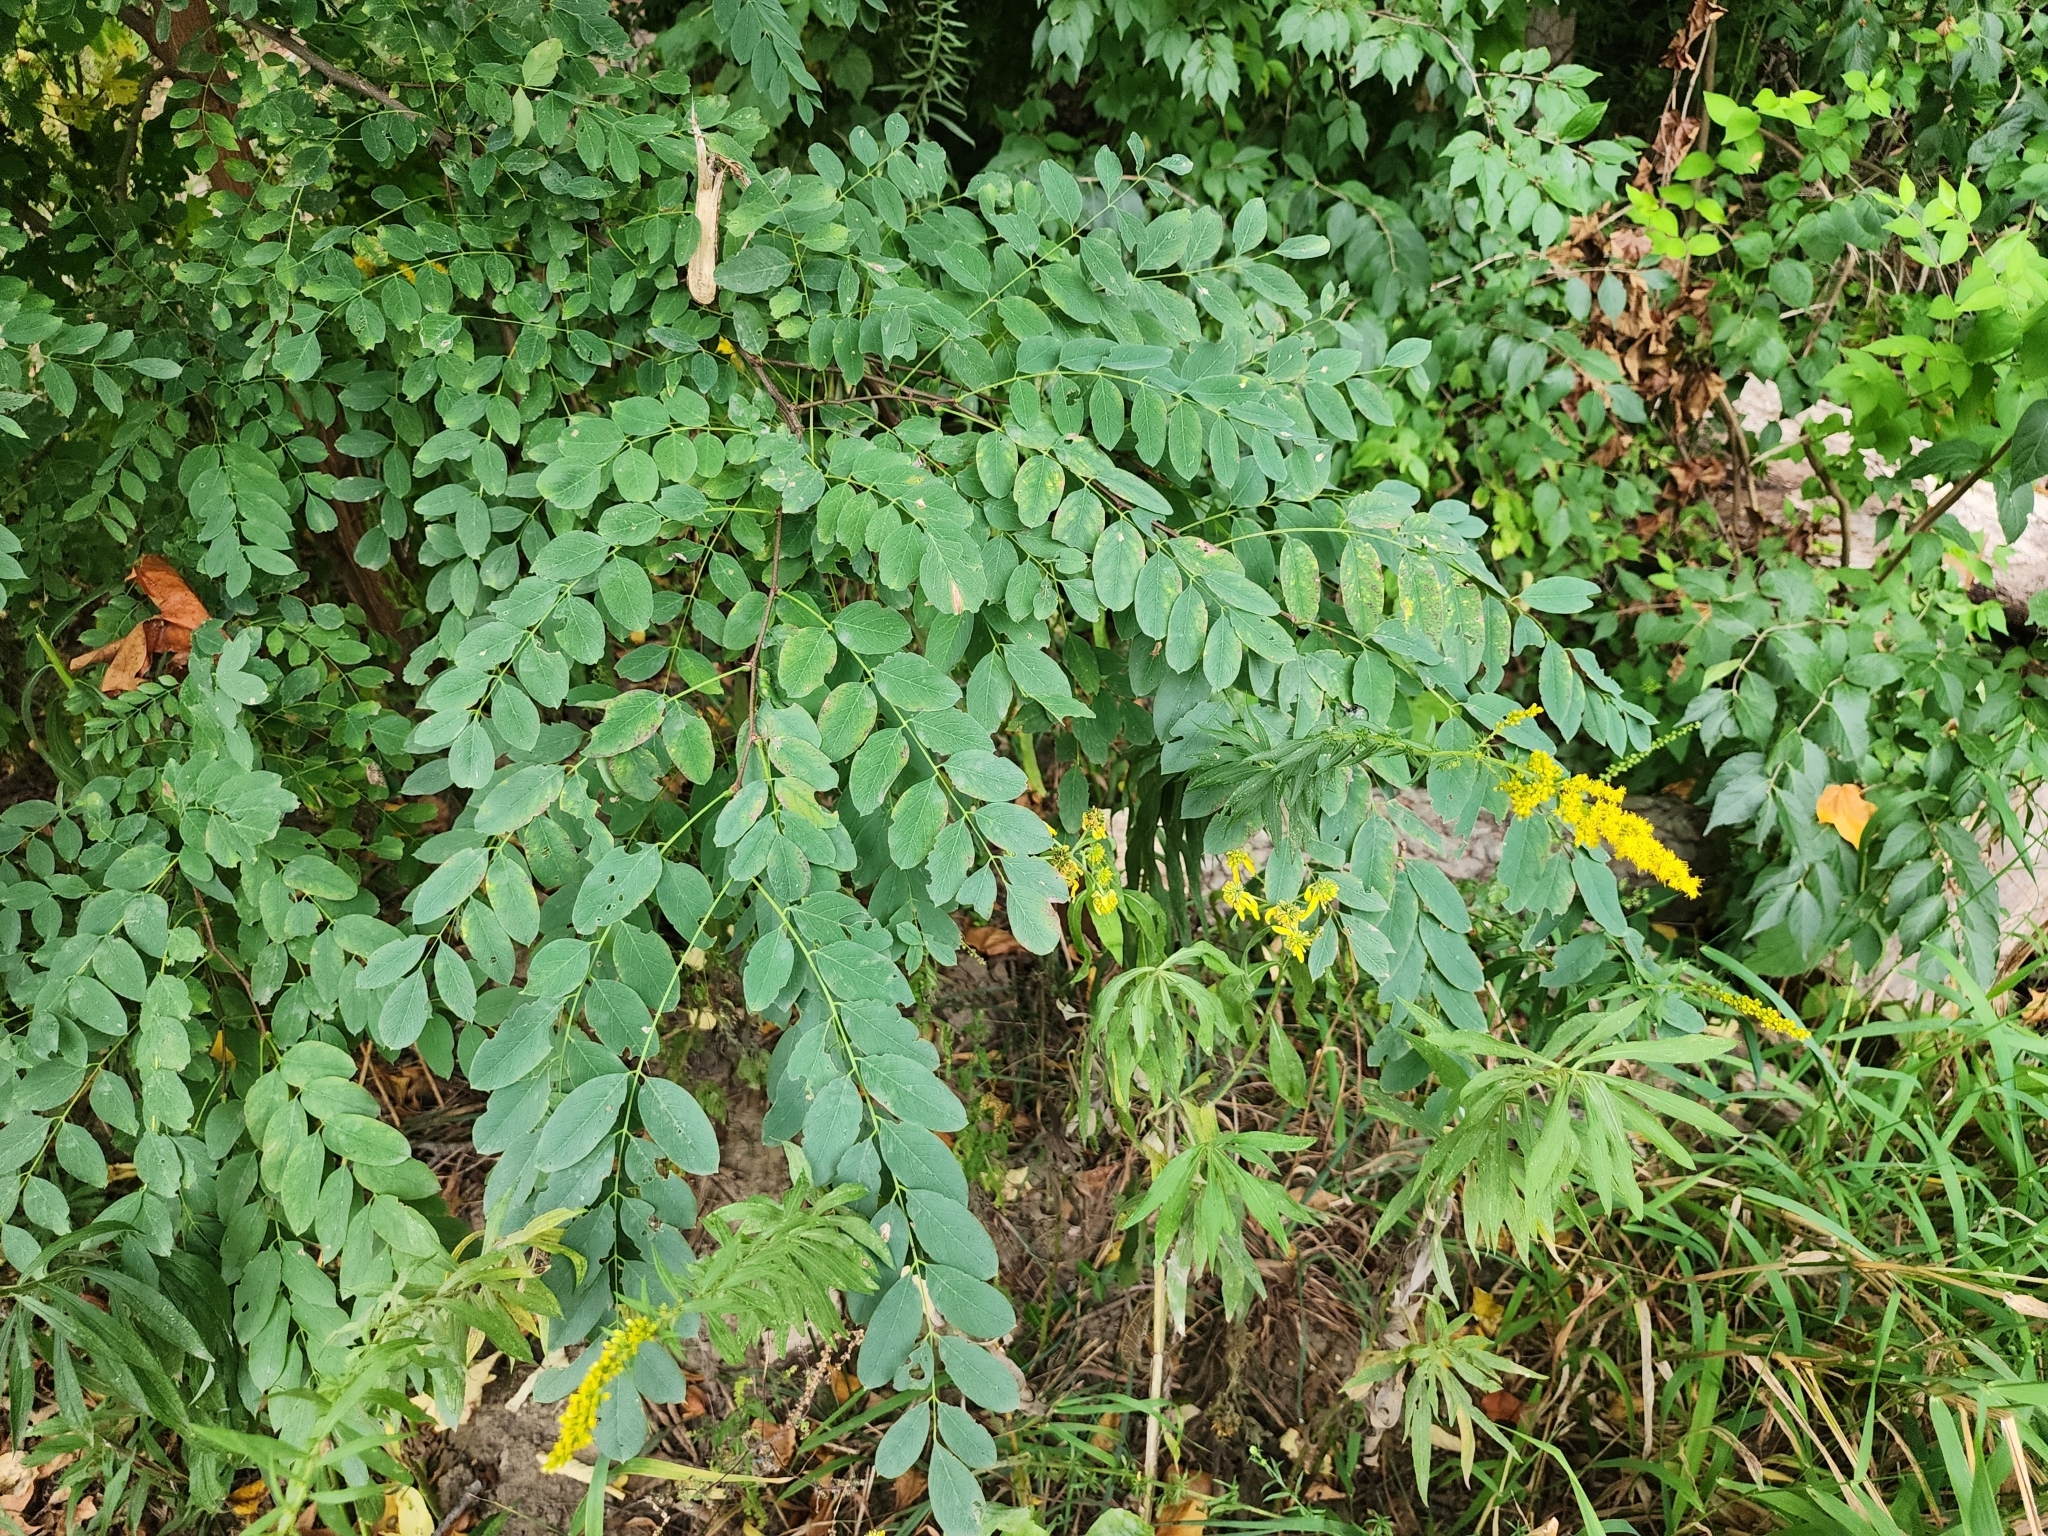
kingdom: Plantae
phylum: Tracheophyta
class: Magnoliopsida
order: Fabales
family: Fabaceae
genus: Gymnocladus
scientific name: Gymnocladus dioicus
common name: Kentucky coffee-tree
